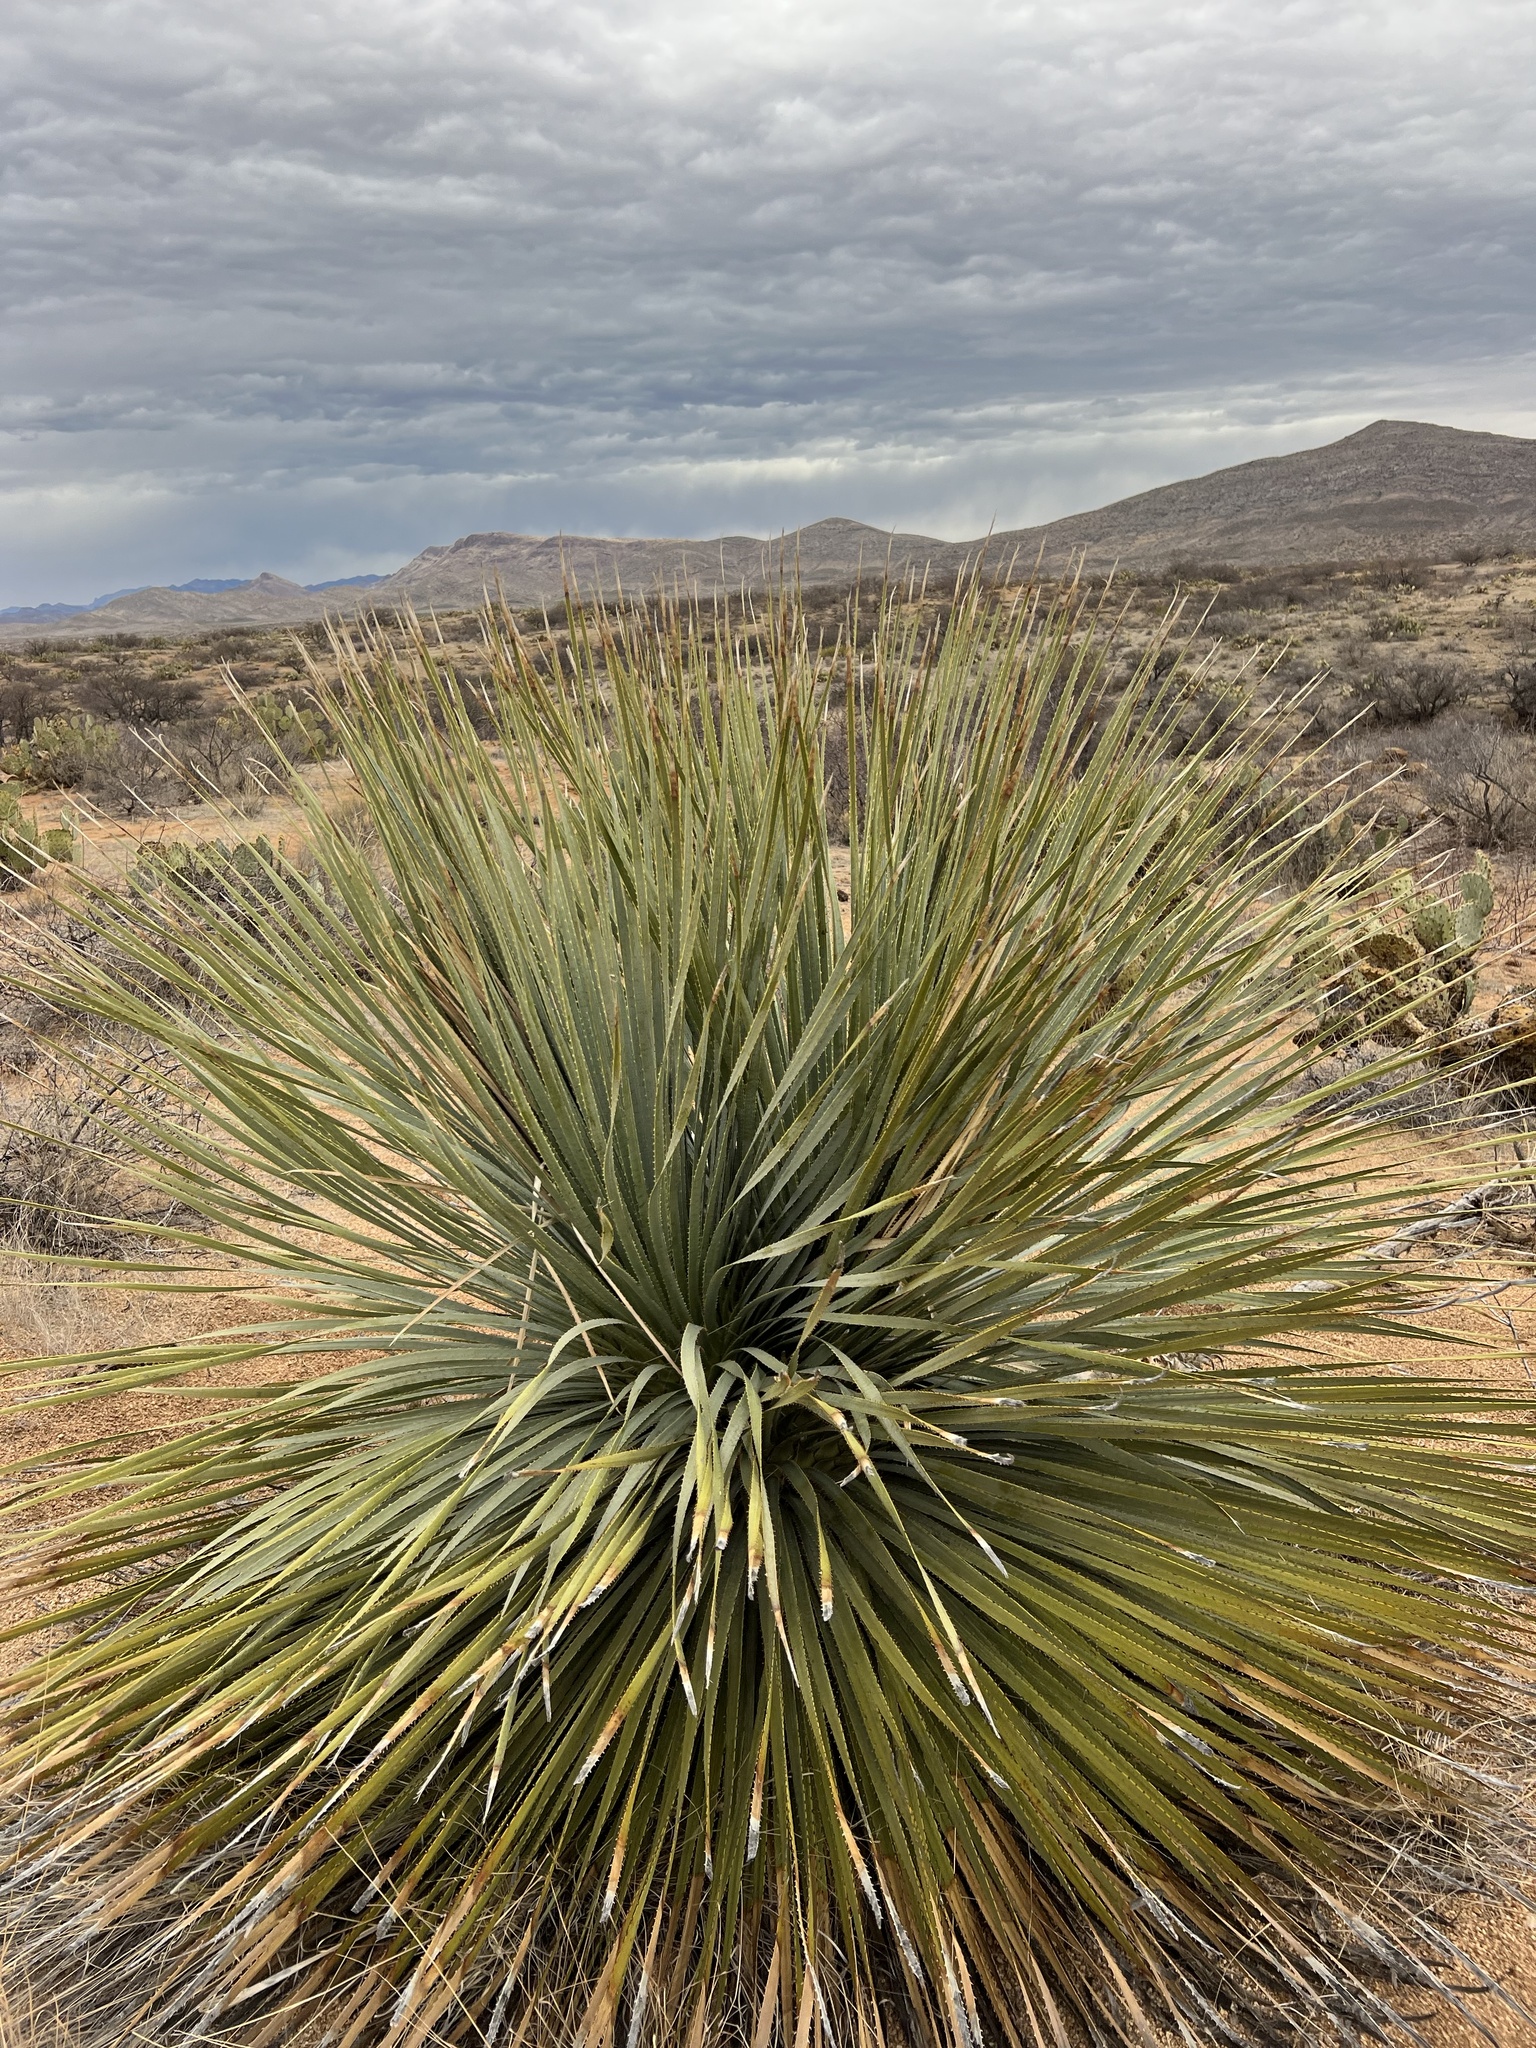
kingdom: Plantae
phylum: Tracheophyta
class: Liliopsida
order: Asparagales
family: Asparagaceae
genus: Dasylirion
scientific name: Dasylirion wheeleri
